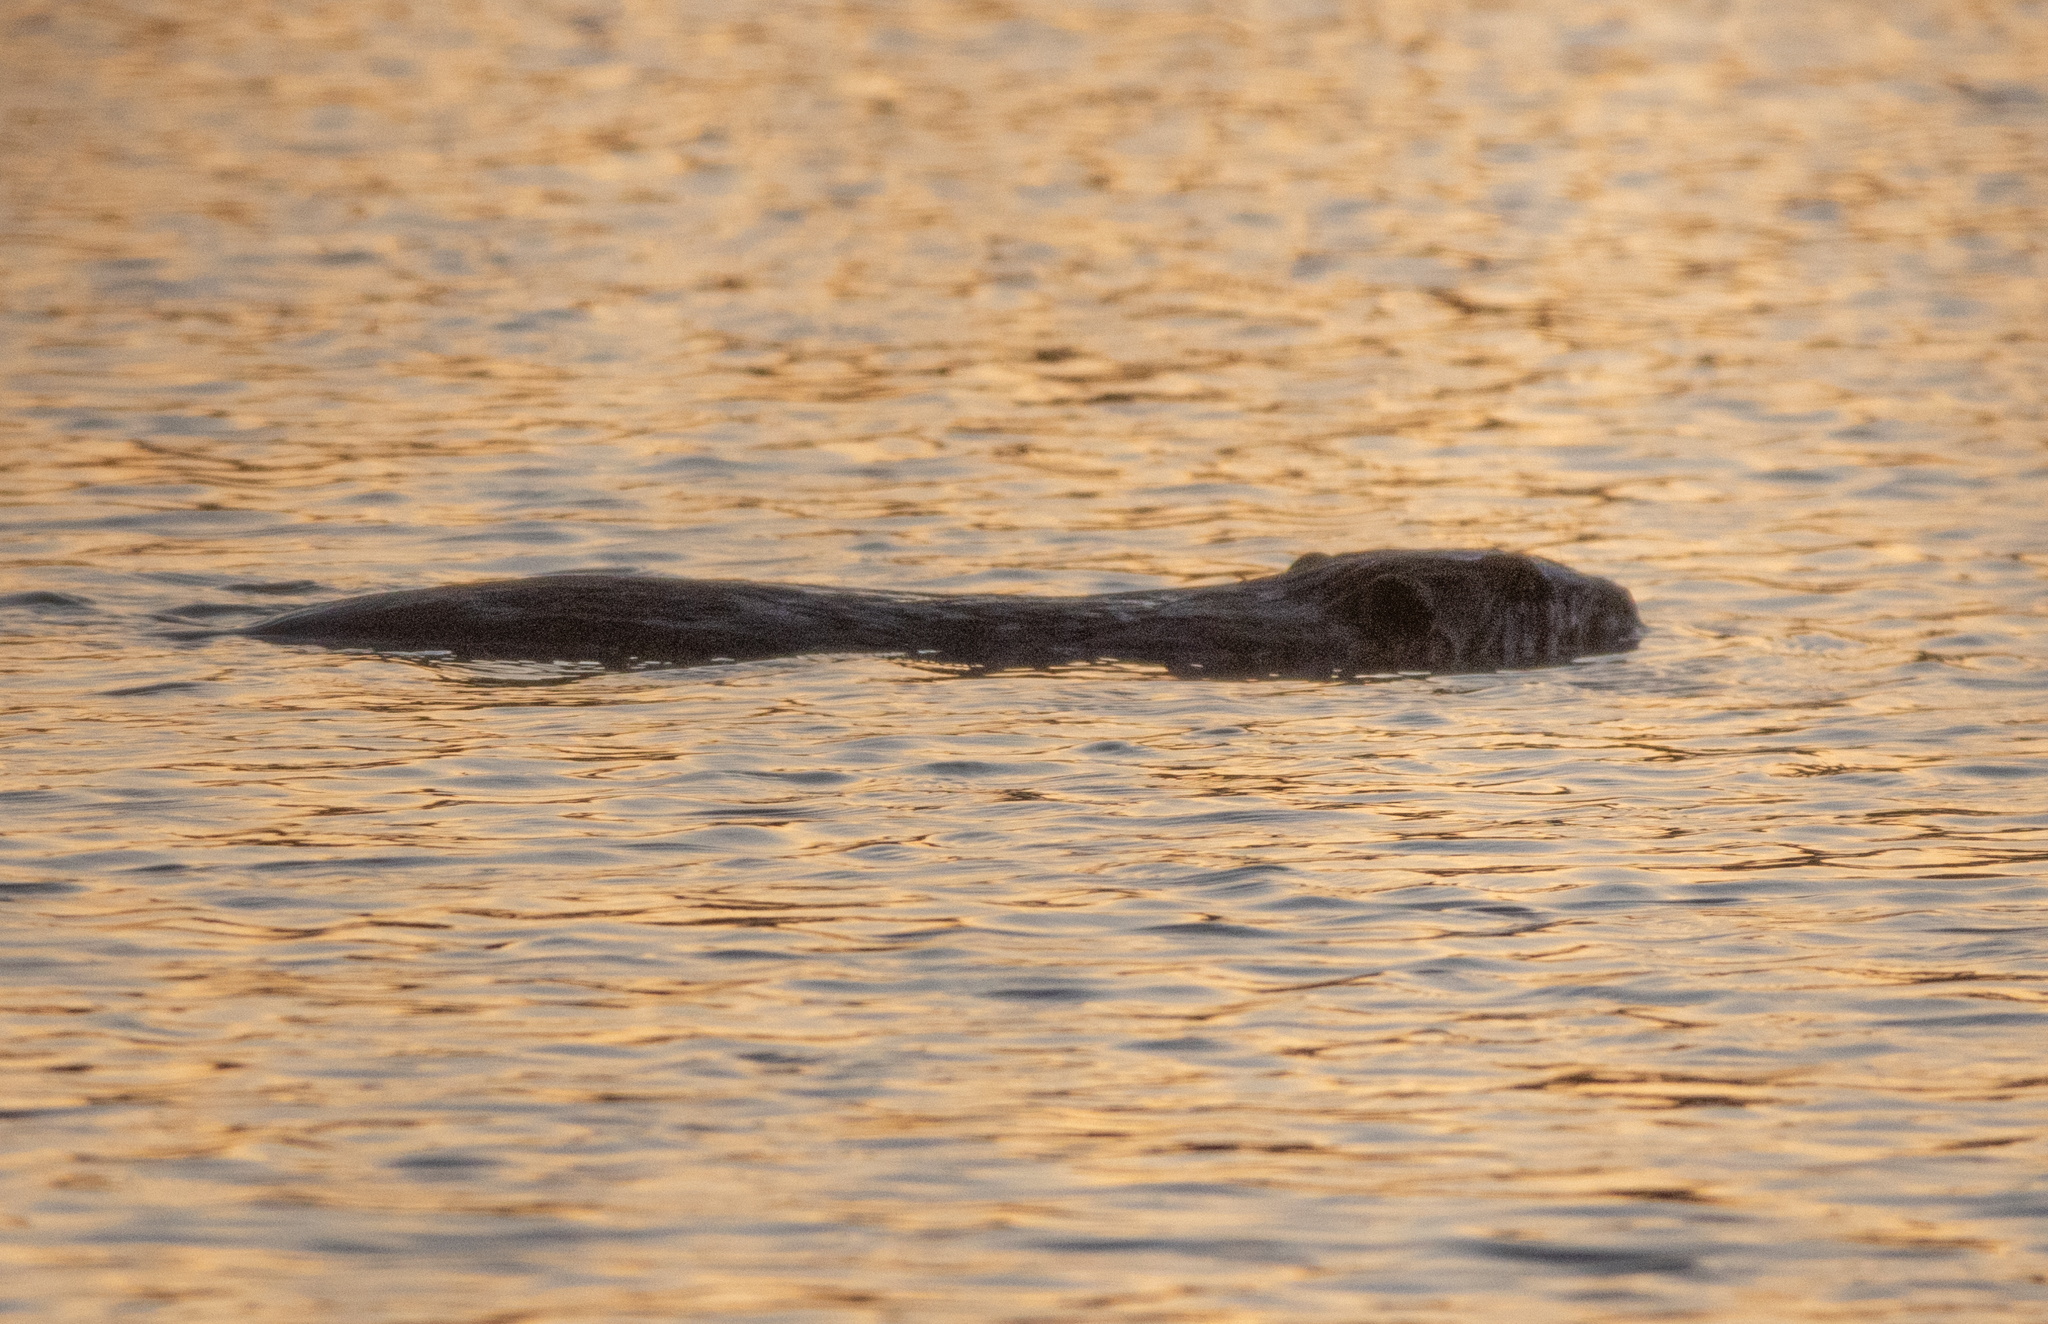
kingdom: Animalia
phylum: Chordata
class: Mammalia
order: Rodentia
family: Castoridae
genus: Castor
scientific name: Castor canadensis
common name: American beaver
